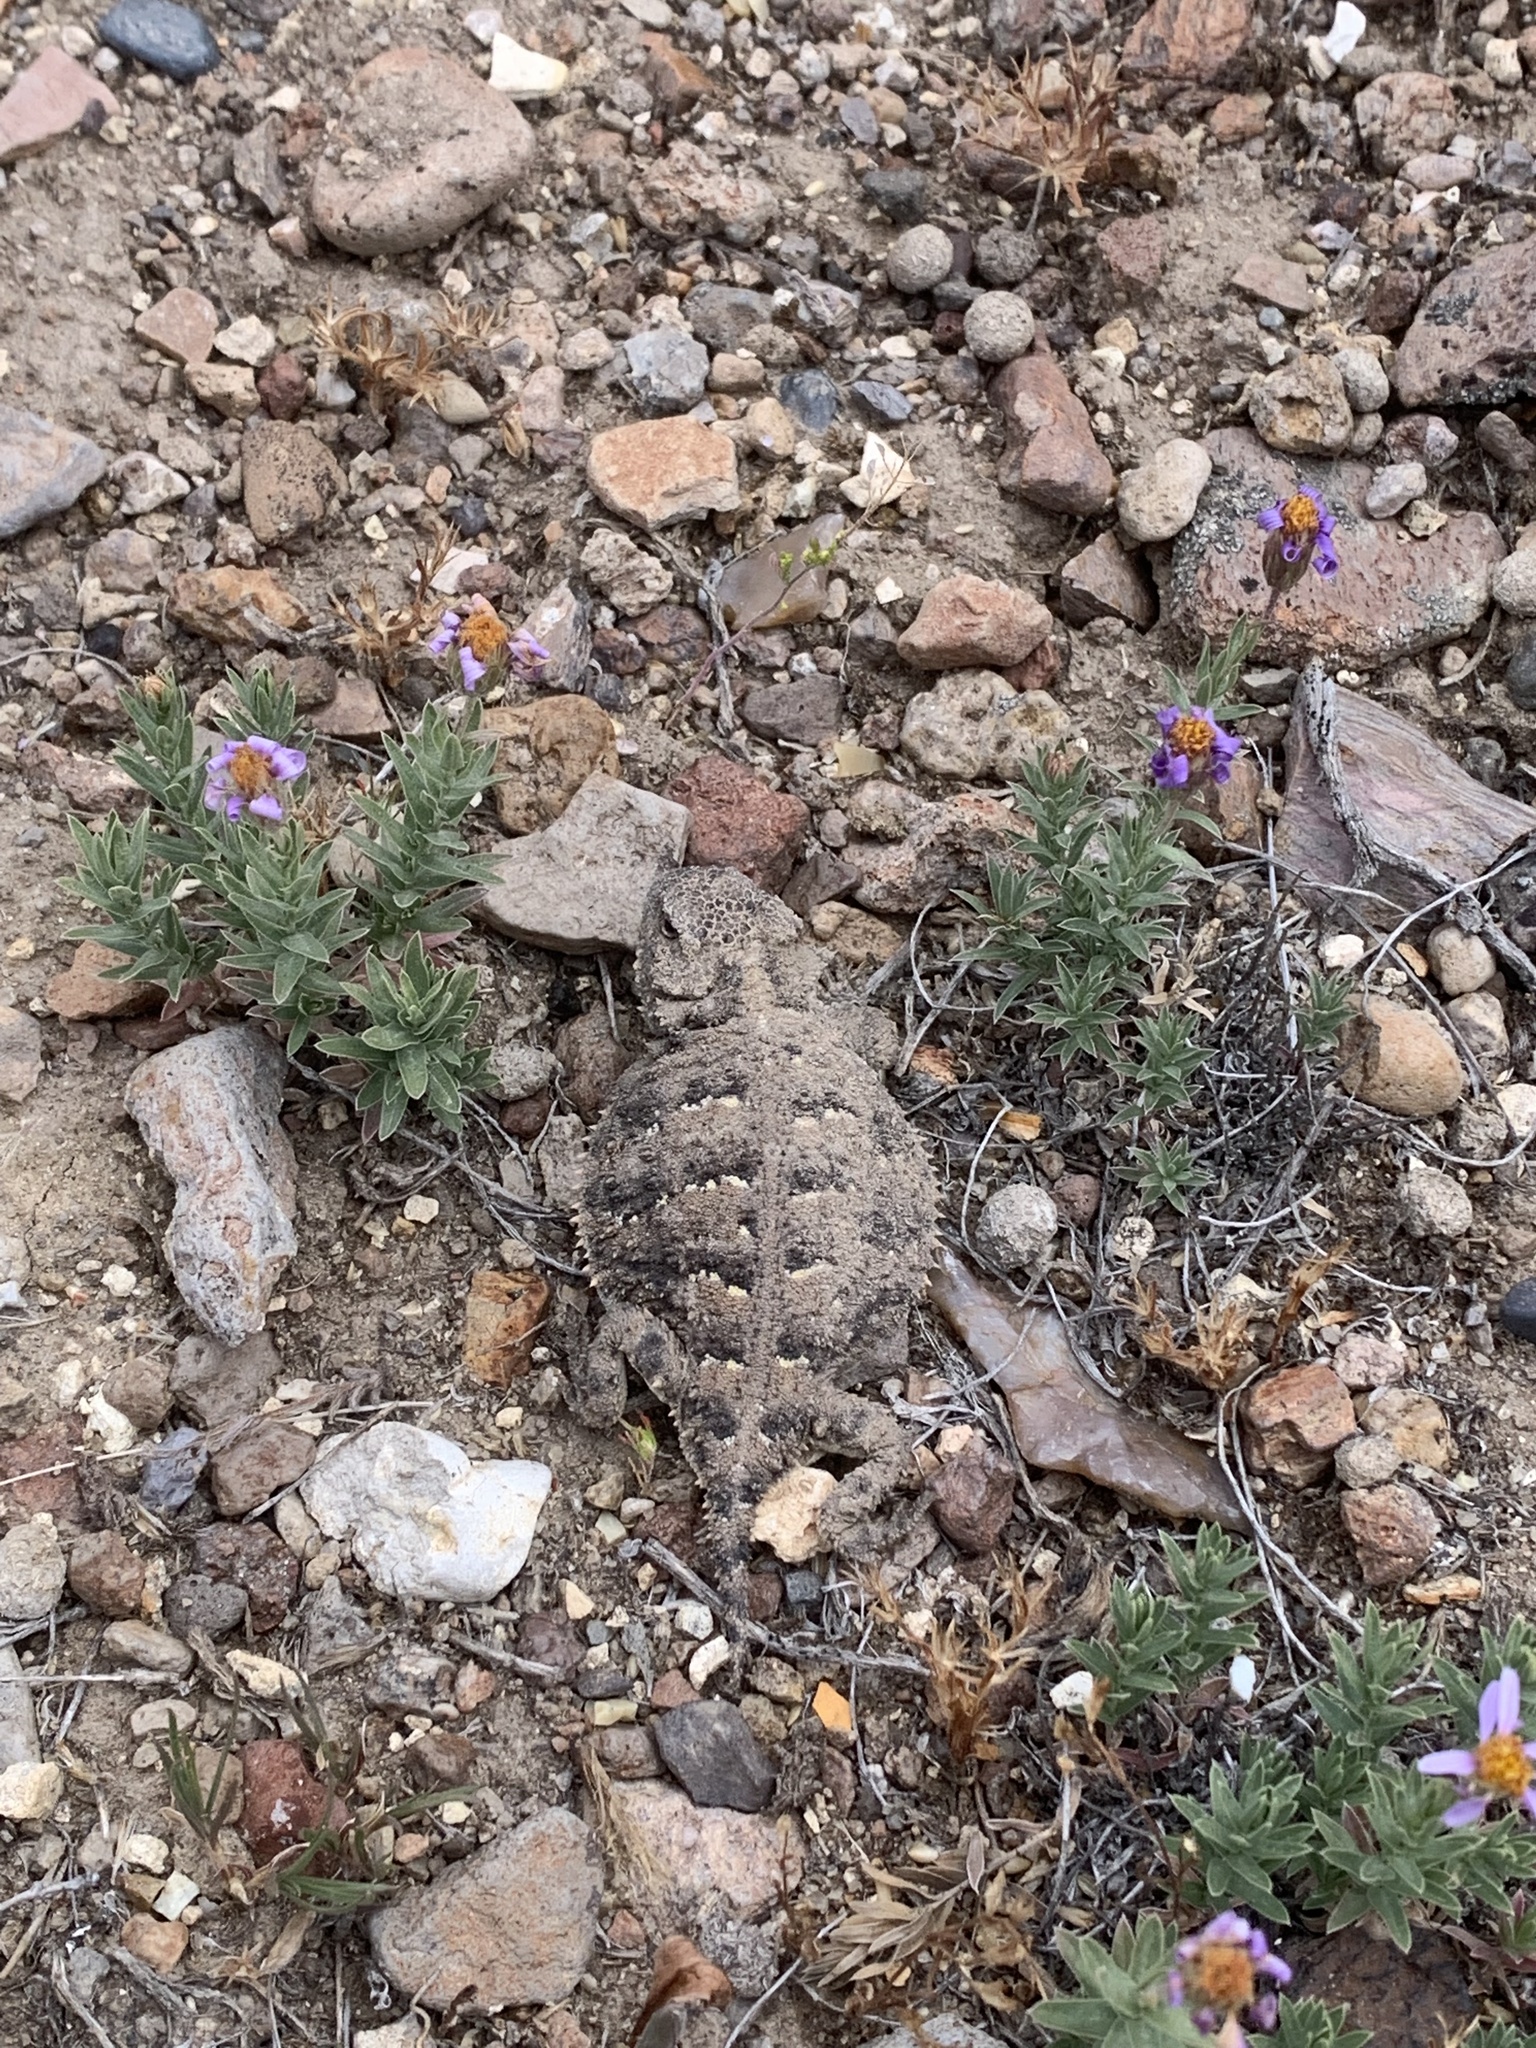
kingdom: Animalia
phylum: Chordata
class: Squamata
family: Phrynosomatidae
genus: Phrynosoma
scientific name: Phrynosoma douglasii
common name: Short-horned lizard
